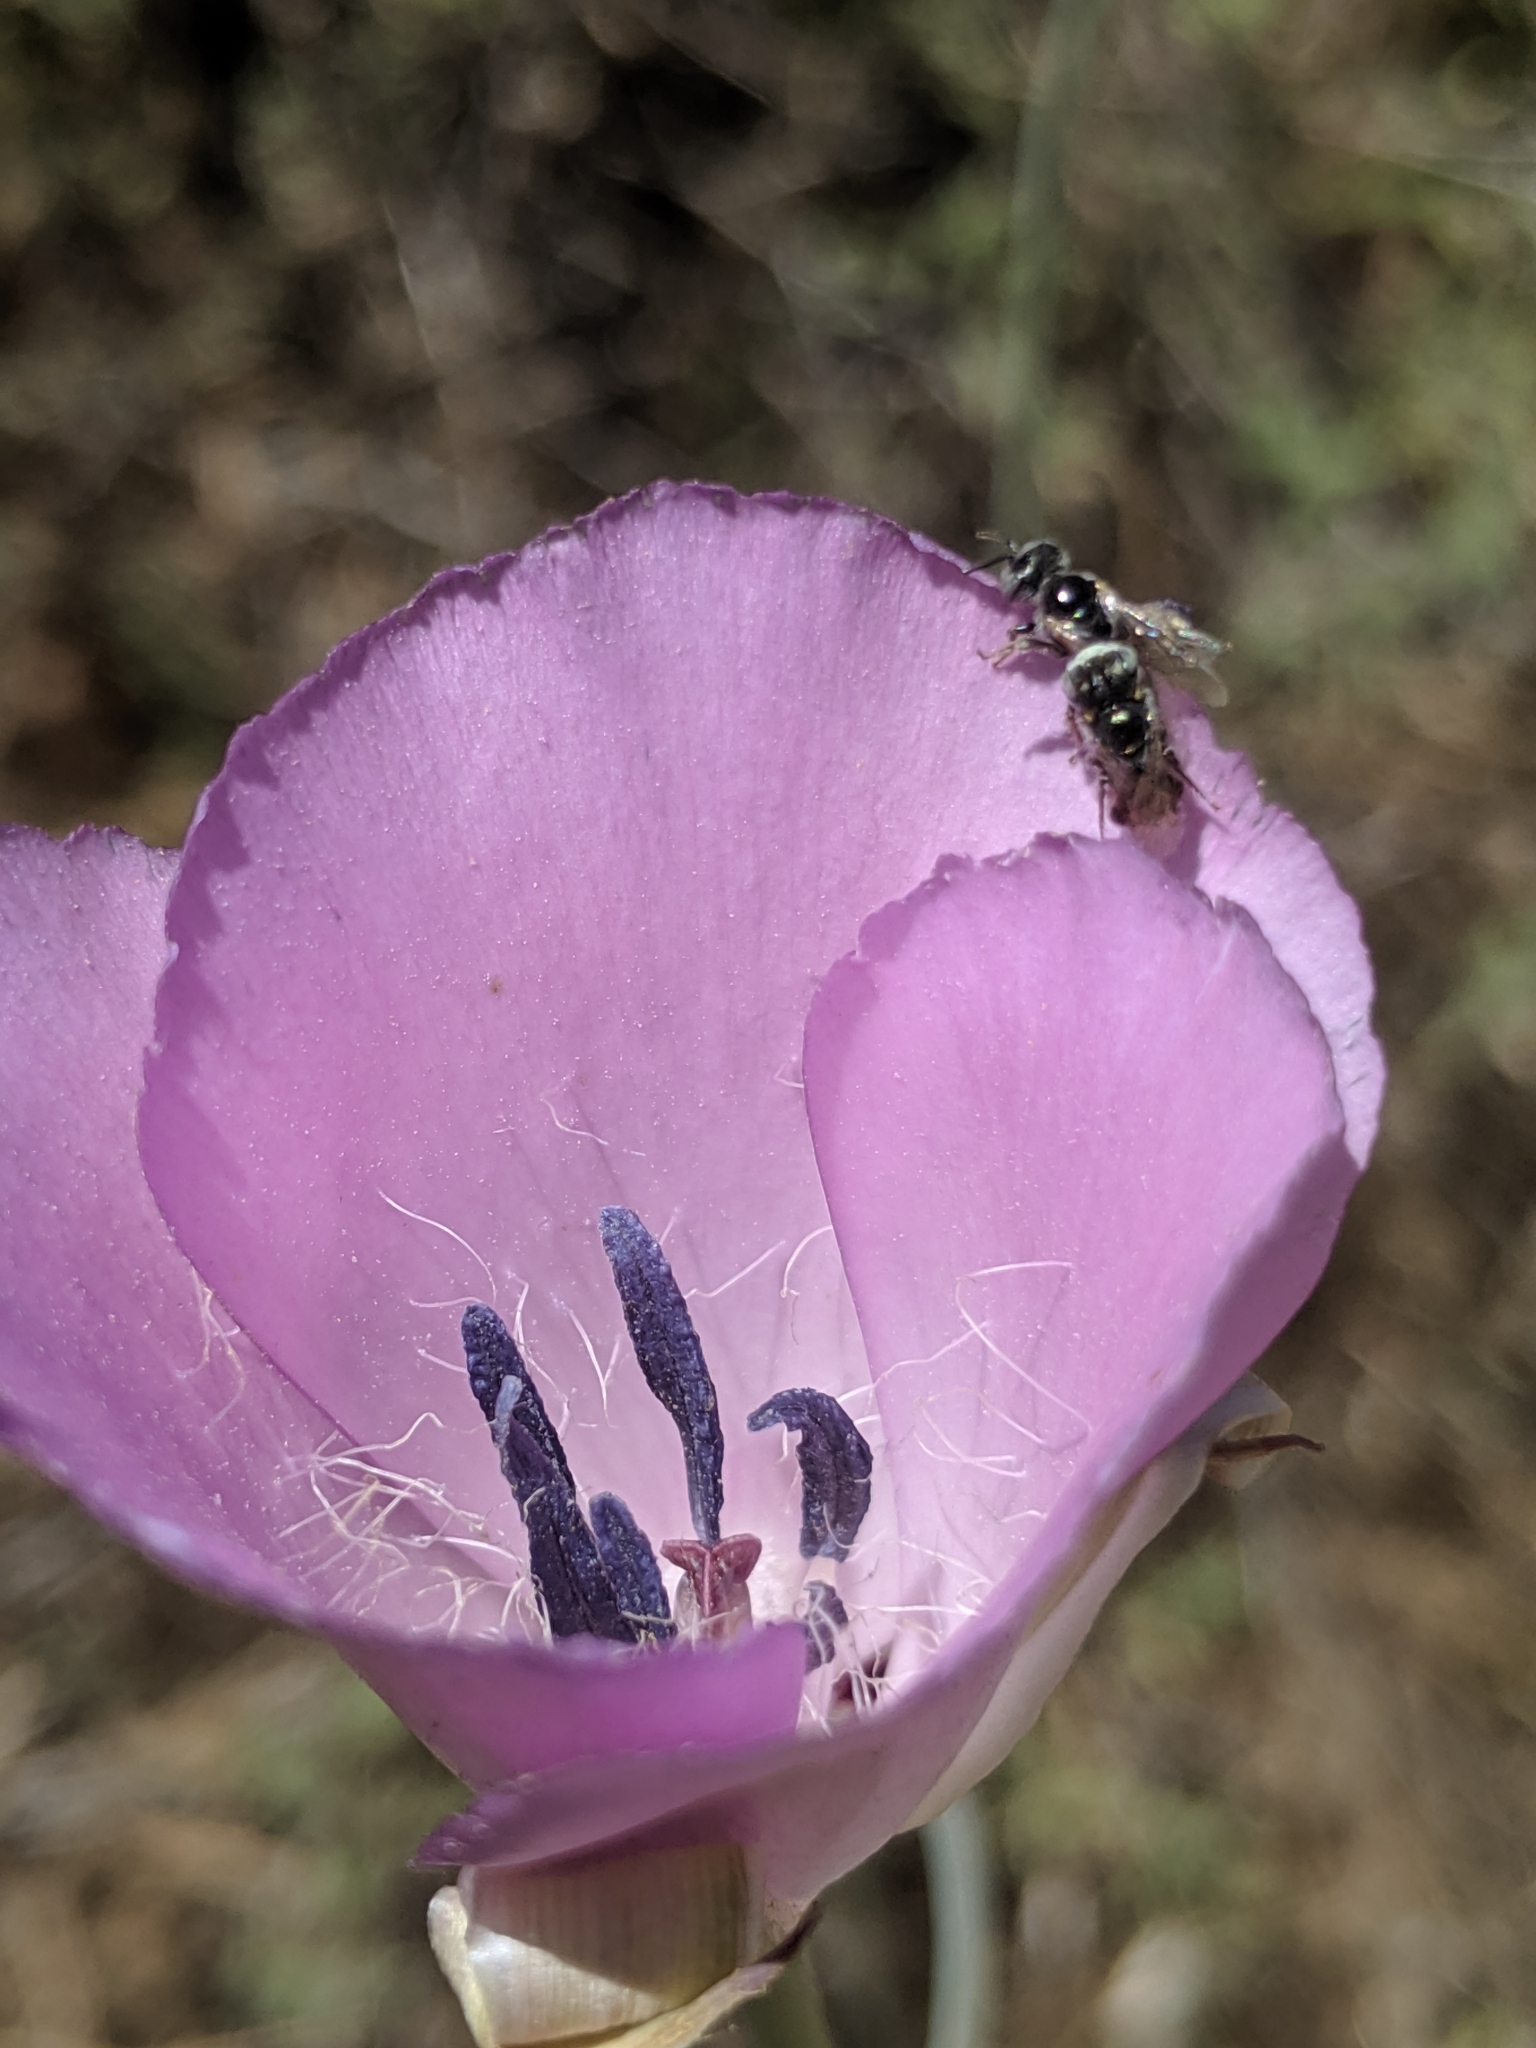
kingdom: Plantae
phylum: Tracheophyta
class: Liliopsida
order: Liliales
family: Liliaceae
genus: Calochortus
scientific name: Calochortus splendens
